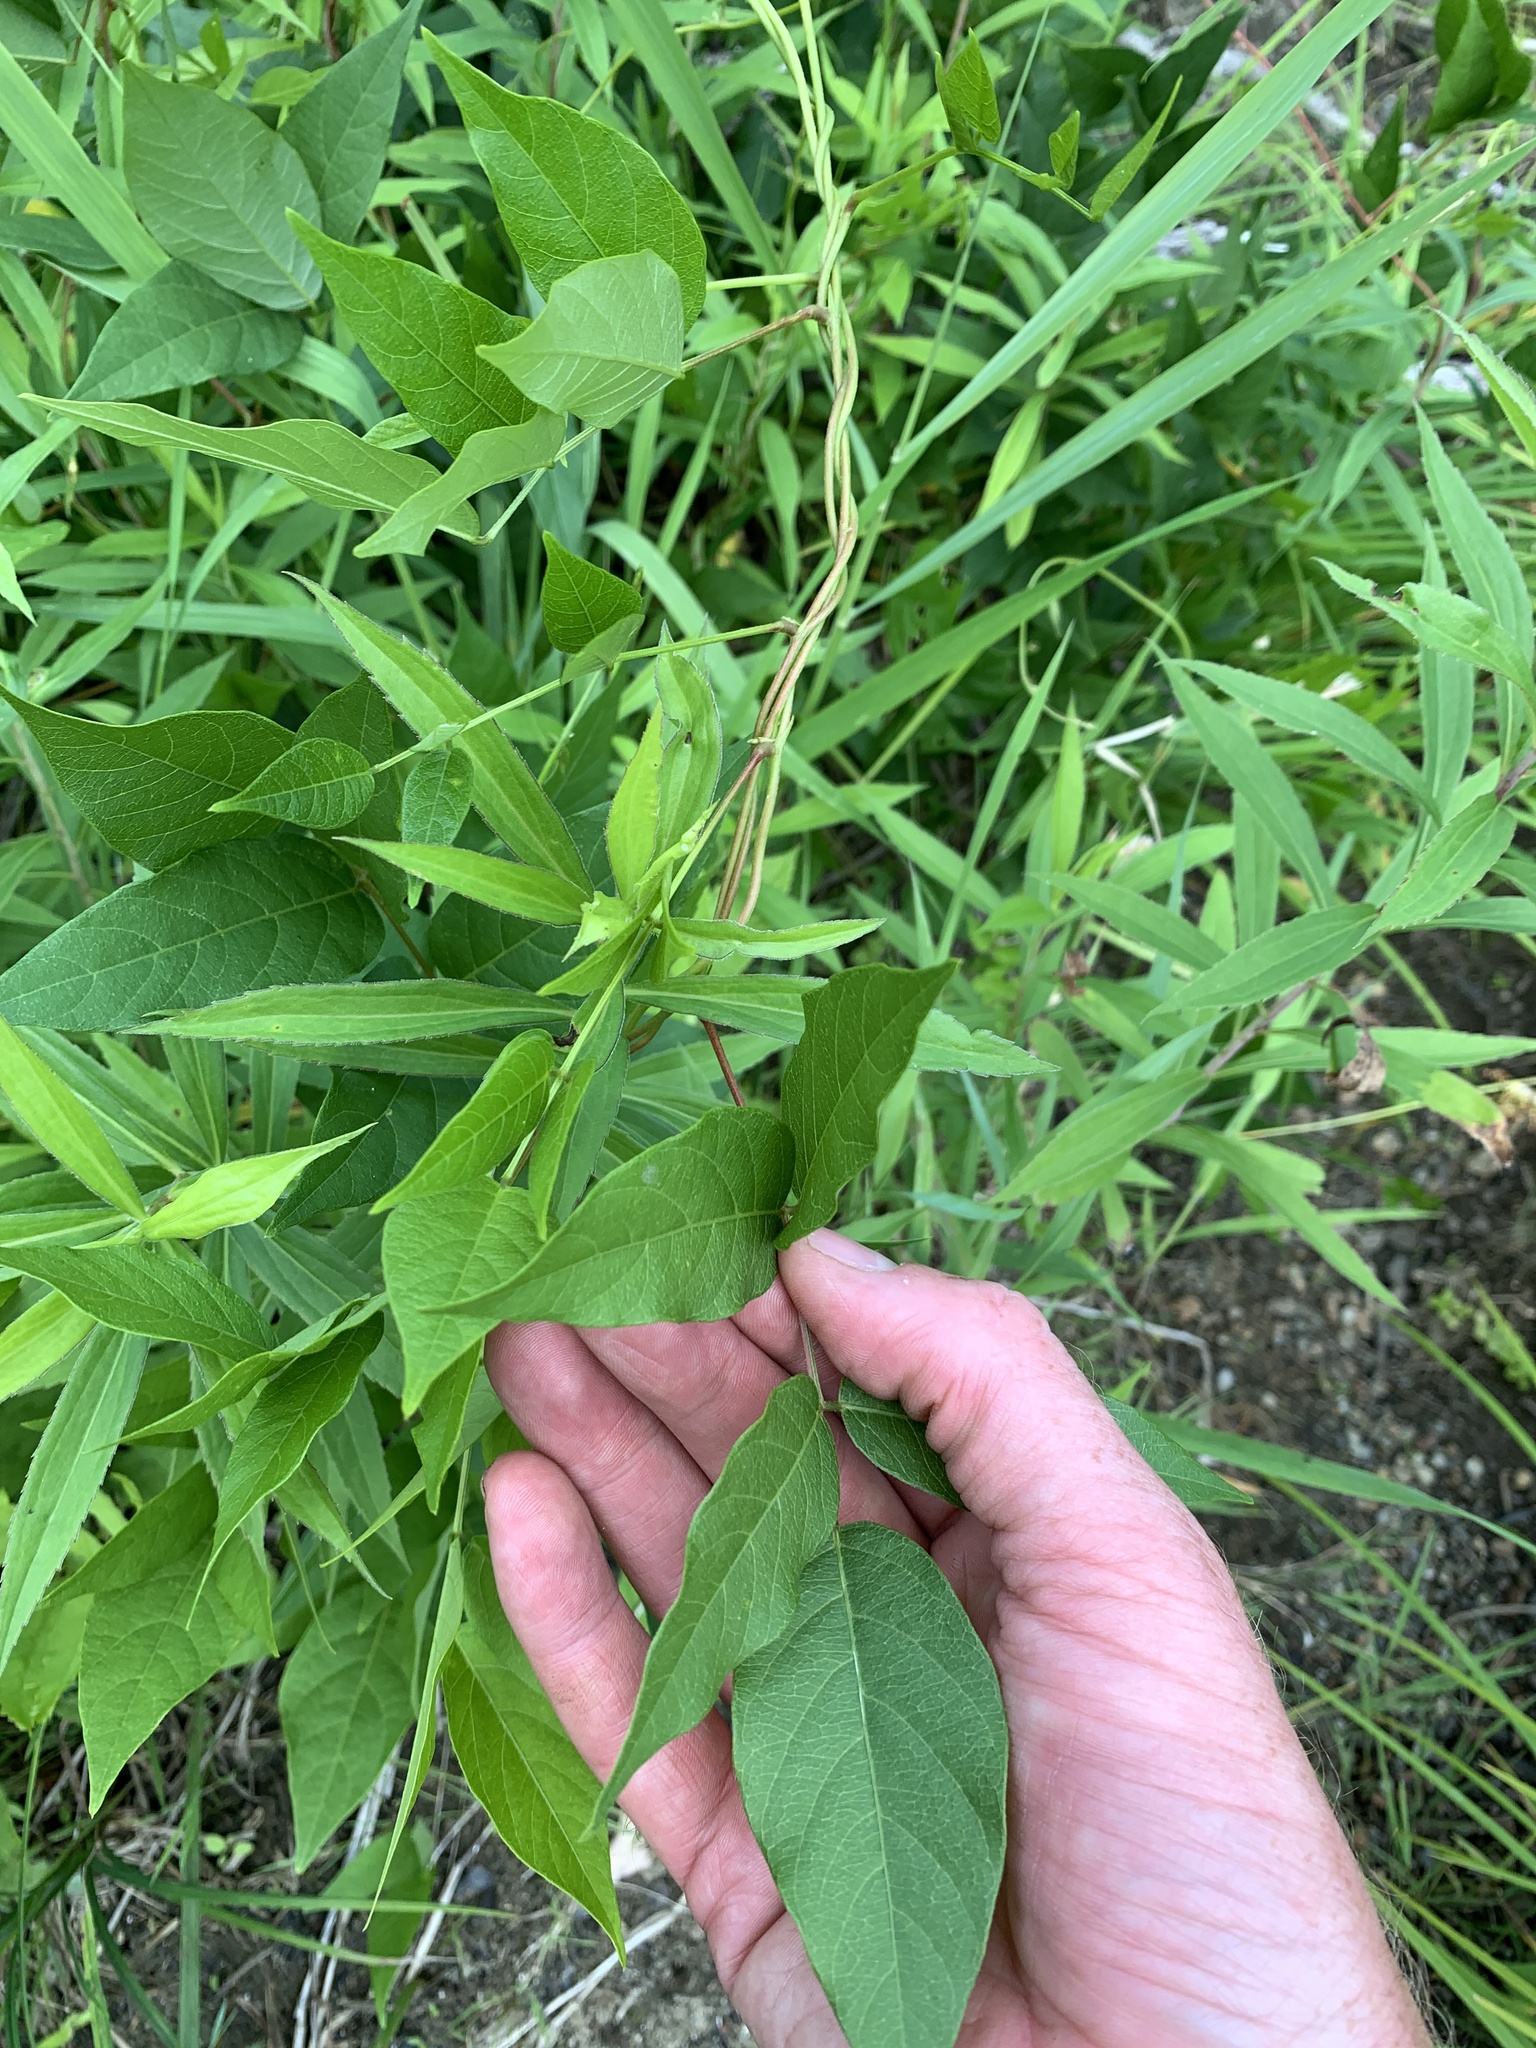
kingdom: Plantae
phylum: Tracheophyta
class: Magnoliopsida
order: Fabales
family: Fabaceae
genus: Apios
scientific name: Apios americana
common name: American potato-bean
